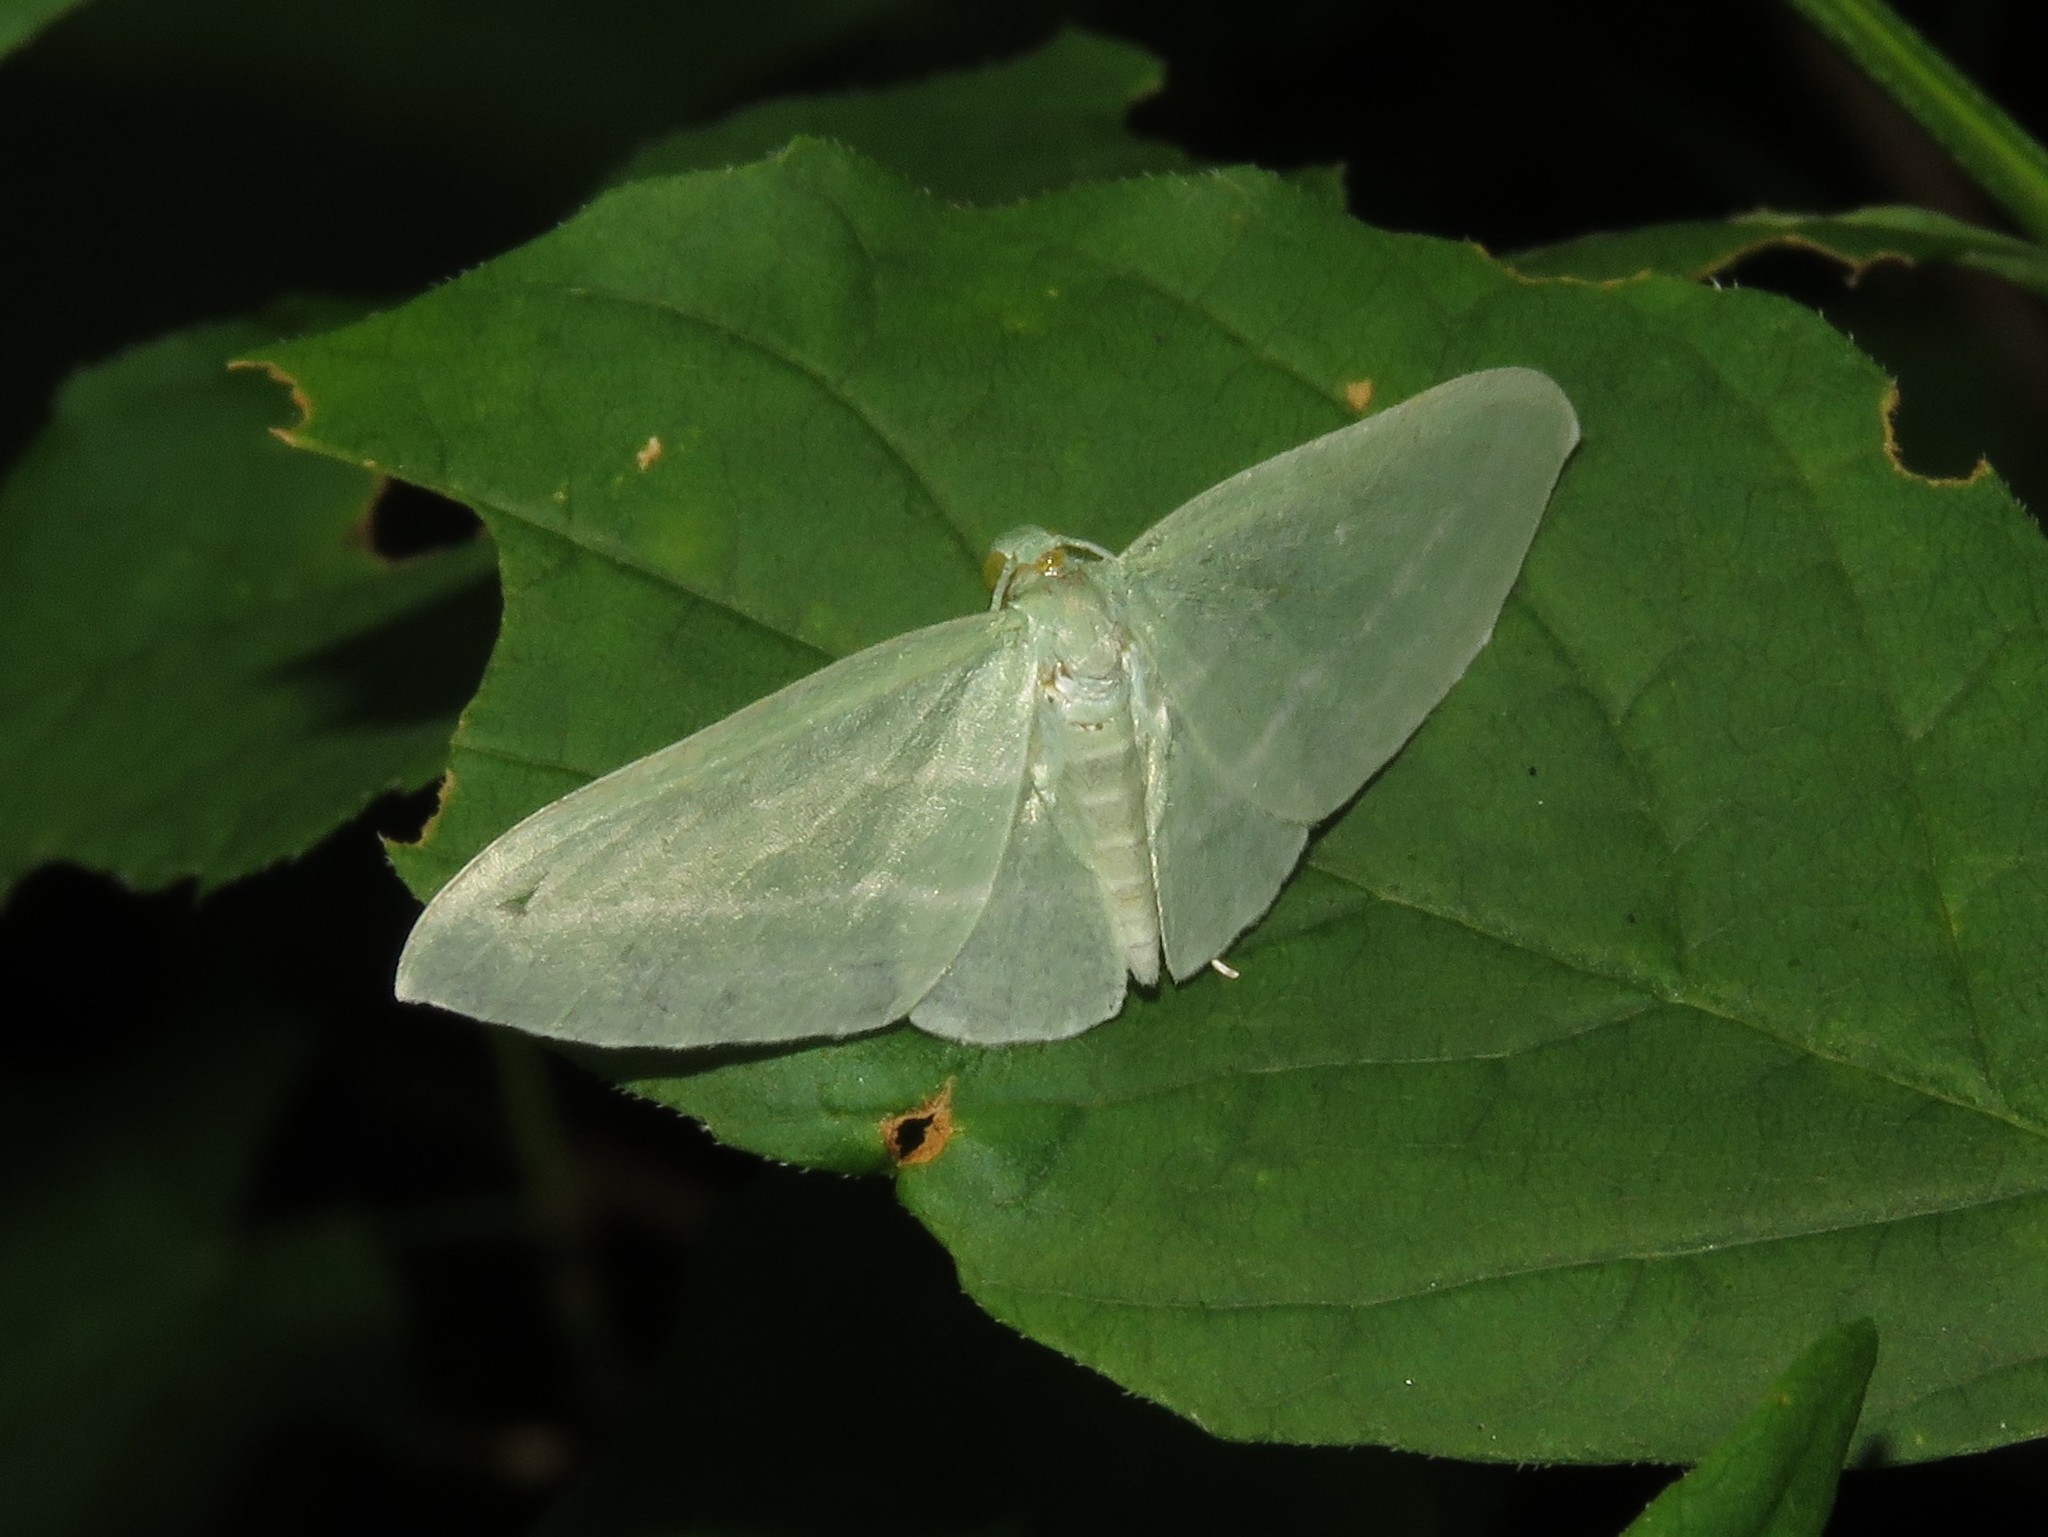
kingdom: Animalia
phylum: Arthropoda
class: Insecta
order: Lepidoptera
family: Geometridae
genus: Dyspteris
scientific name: Dyspteris abortivaria
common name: Bad-wing
